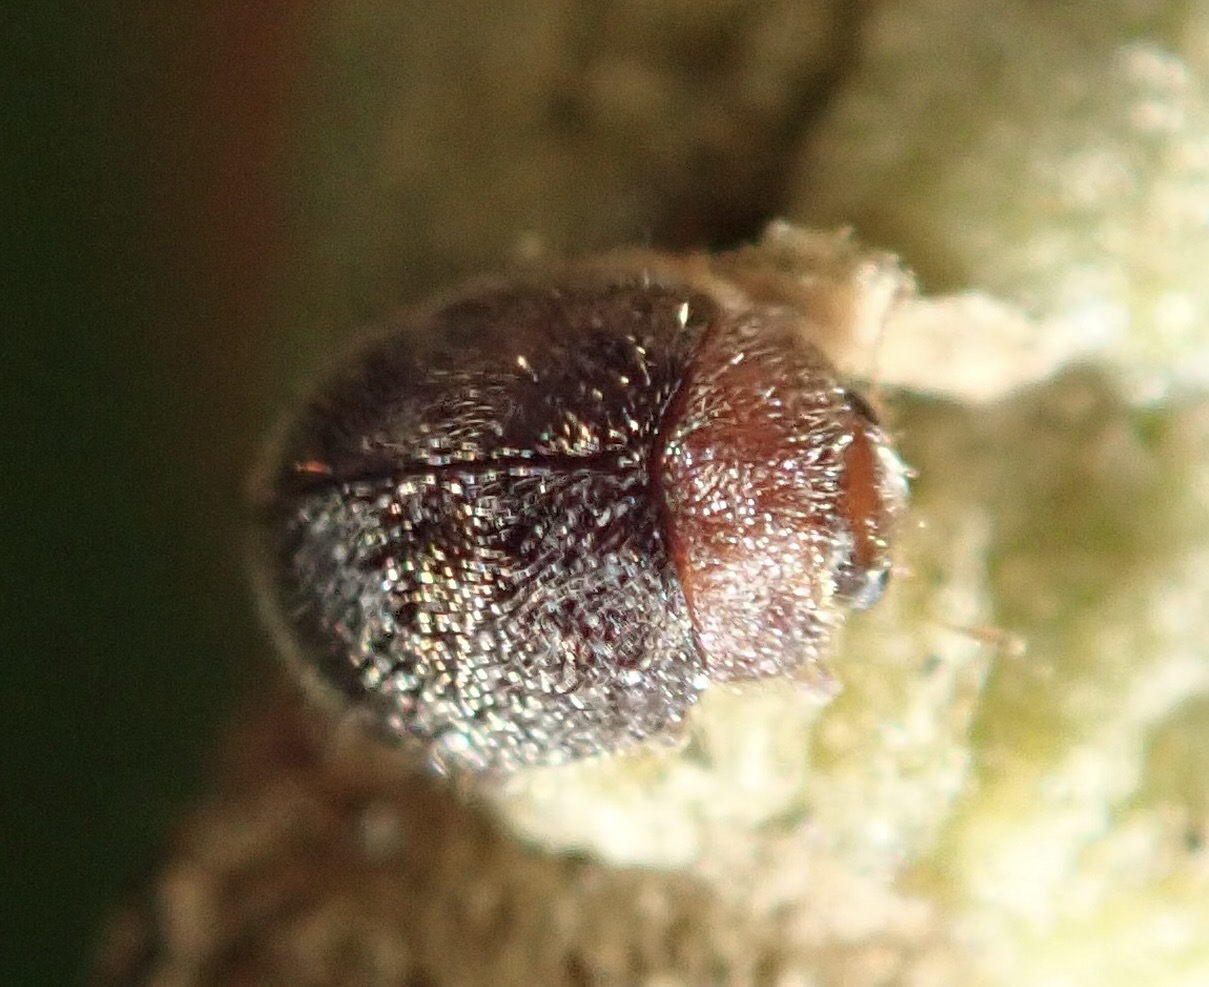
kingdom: Animalia
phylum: Arthropoda
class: Insecta
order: Coleoptera
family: Coccinellidae
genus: Rhyzobius
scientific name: Rhyzobius lophanthae
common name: Scale-eating ladybird beetle
